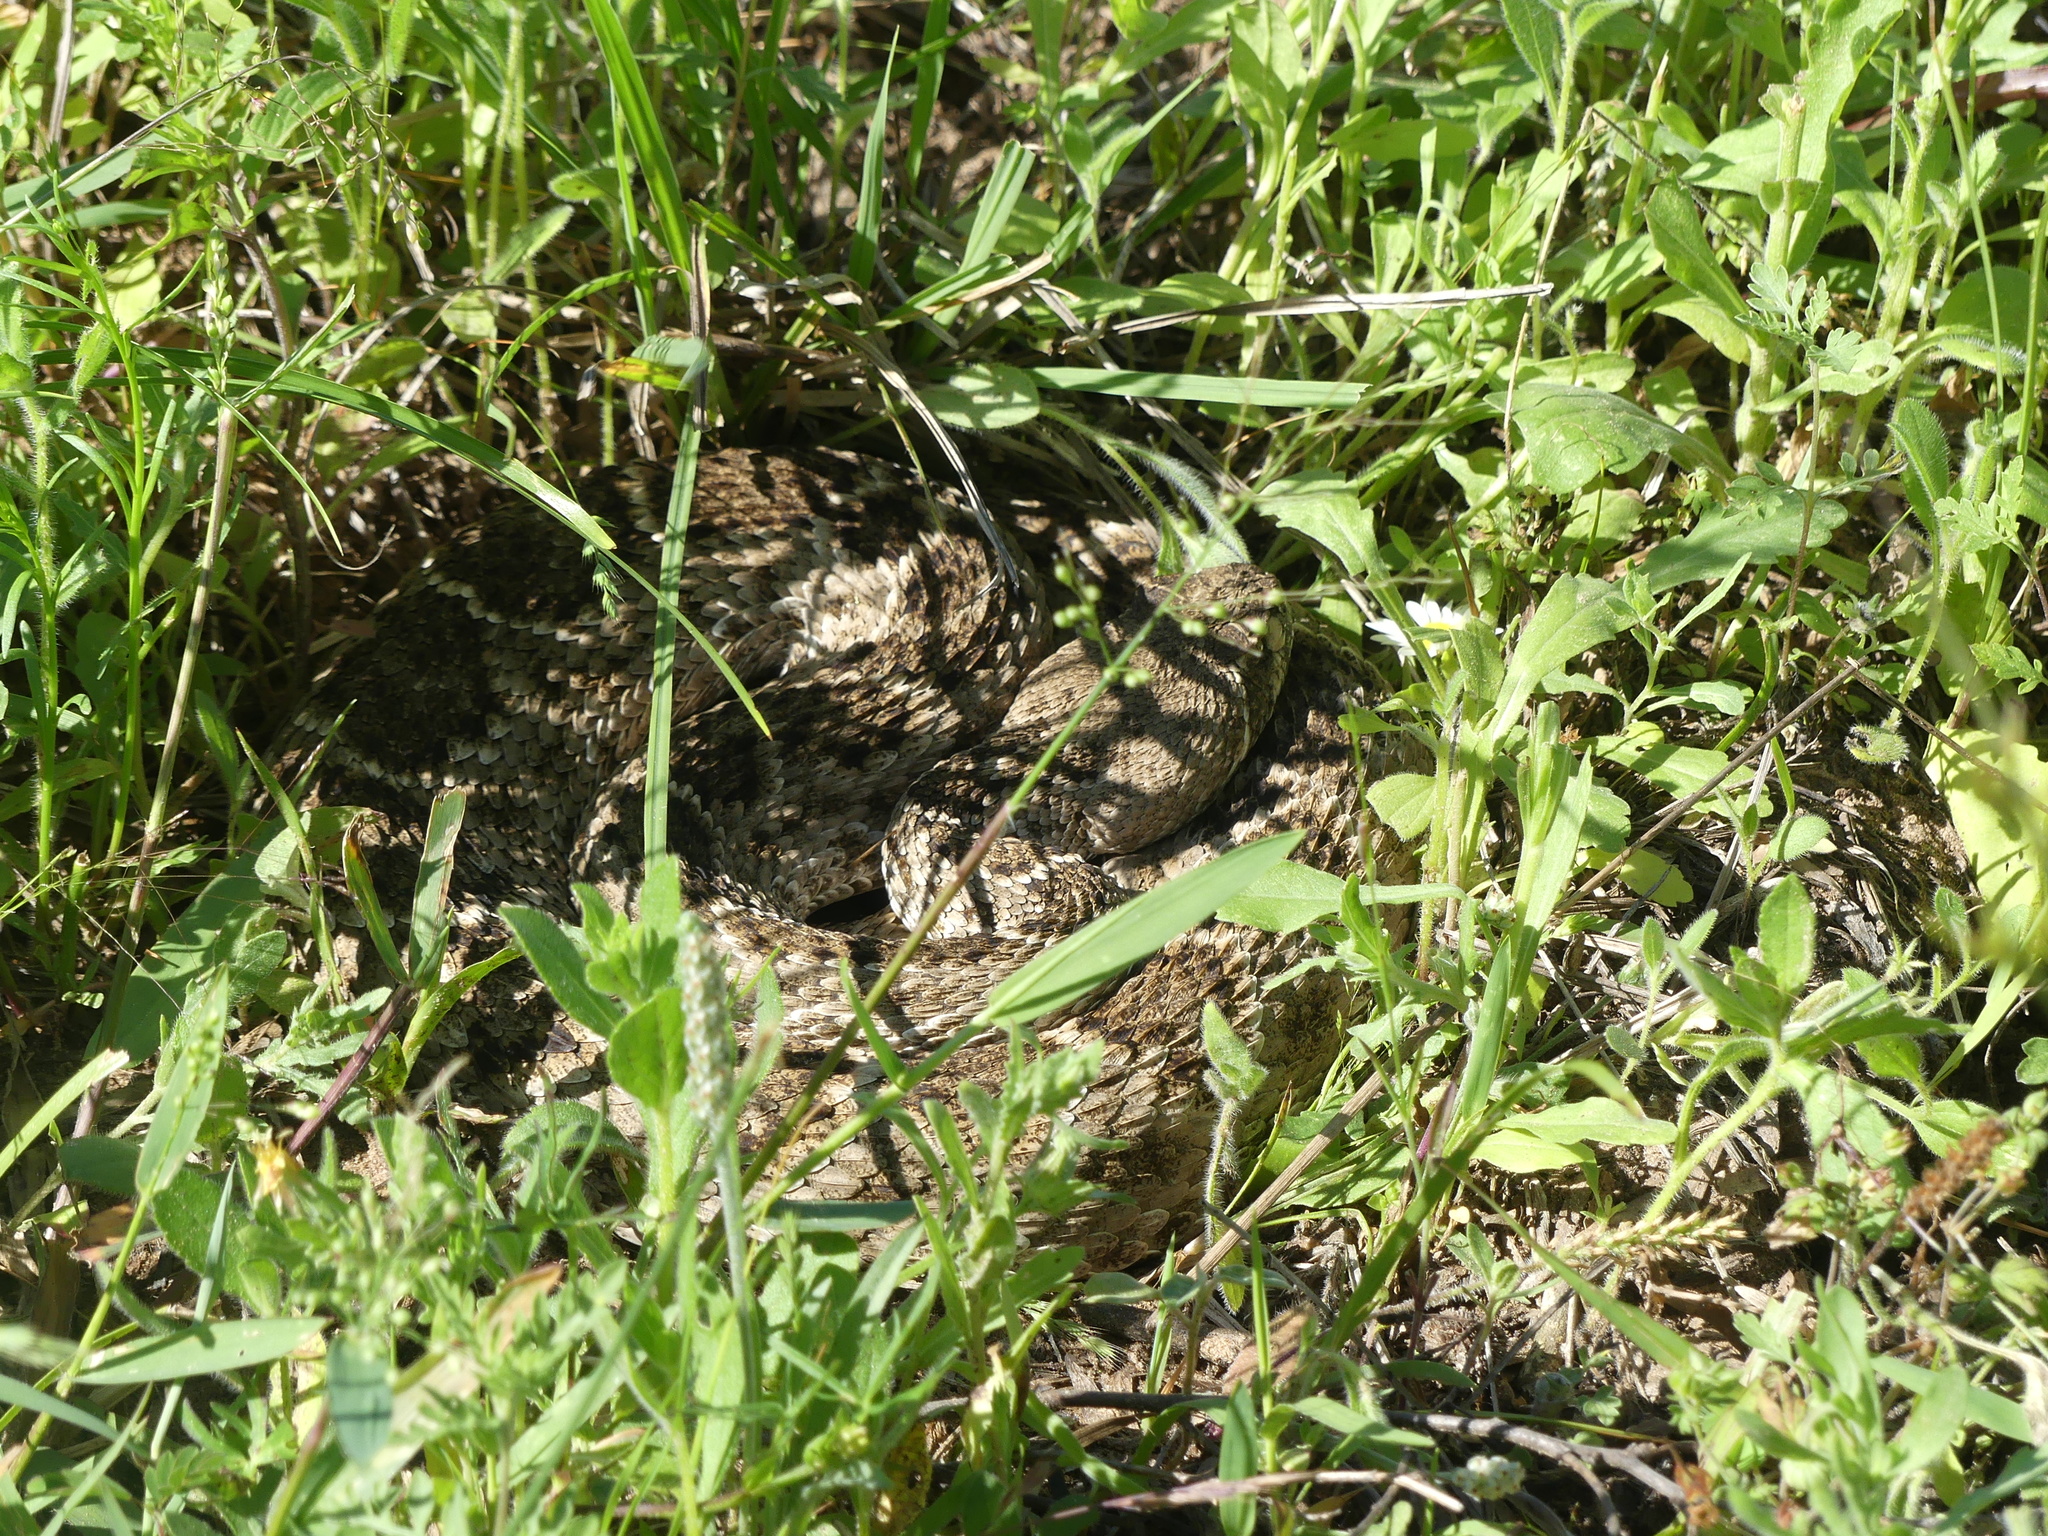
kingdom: Animalia
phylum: Chordata
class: Squamata
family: Viperidae
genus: Crotalus
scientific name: Crotalus atrox
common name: Western diamond-backed rattlesnake
